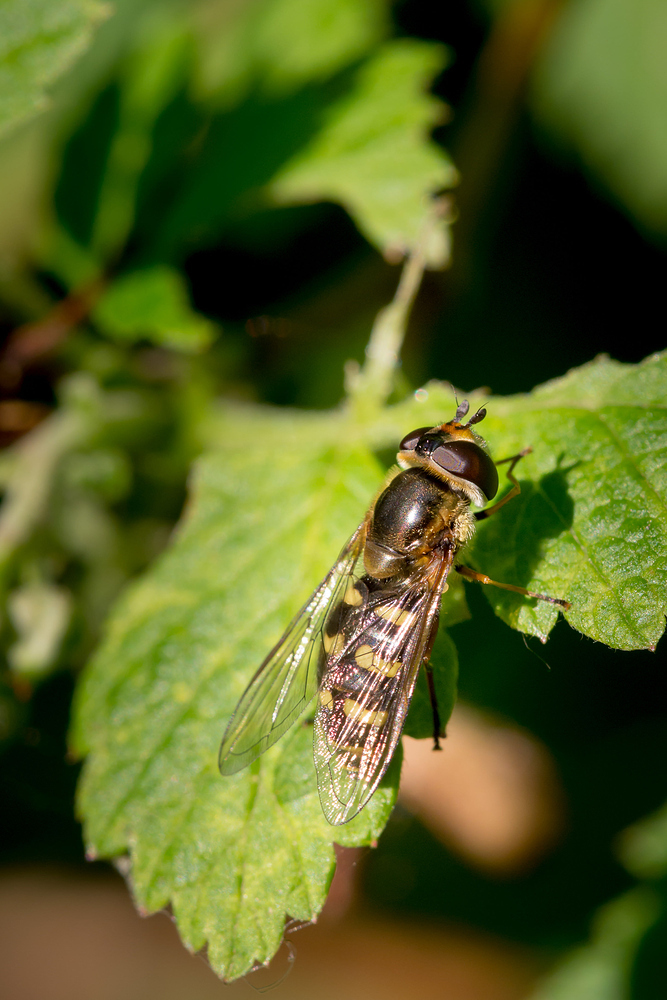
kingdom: Animalia
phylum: Arthropoda
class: Insecta
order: Diptera
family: Syrphidae
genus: Eupeodes
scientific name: Eupeodes luniger
